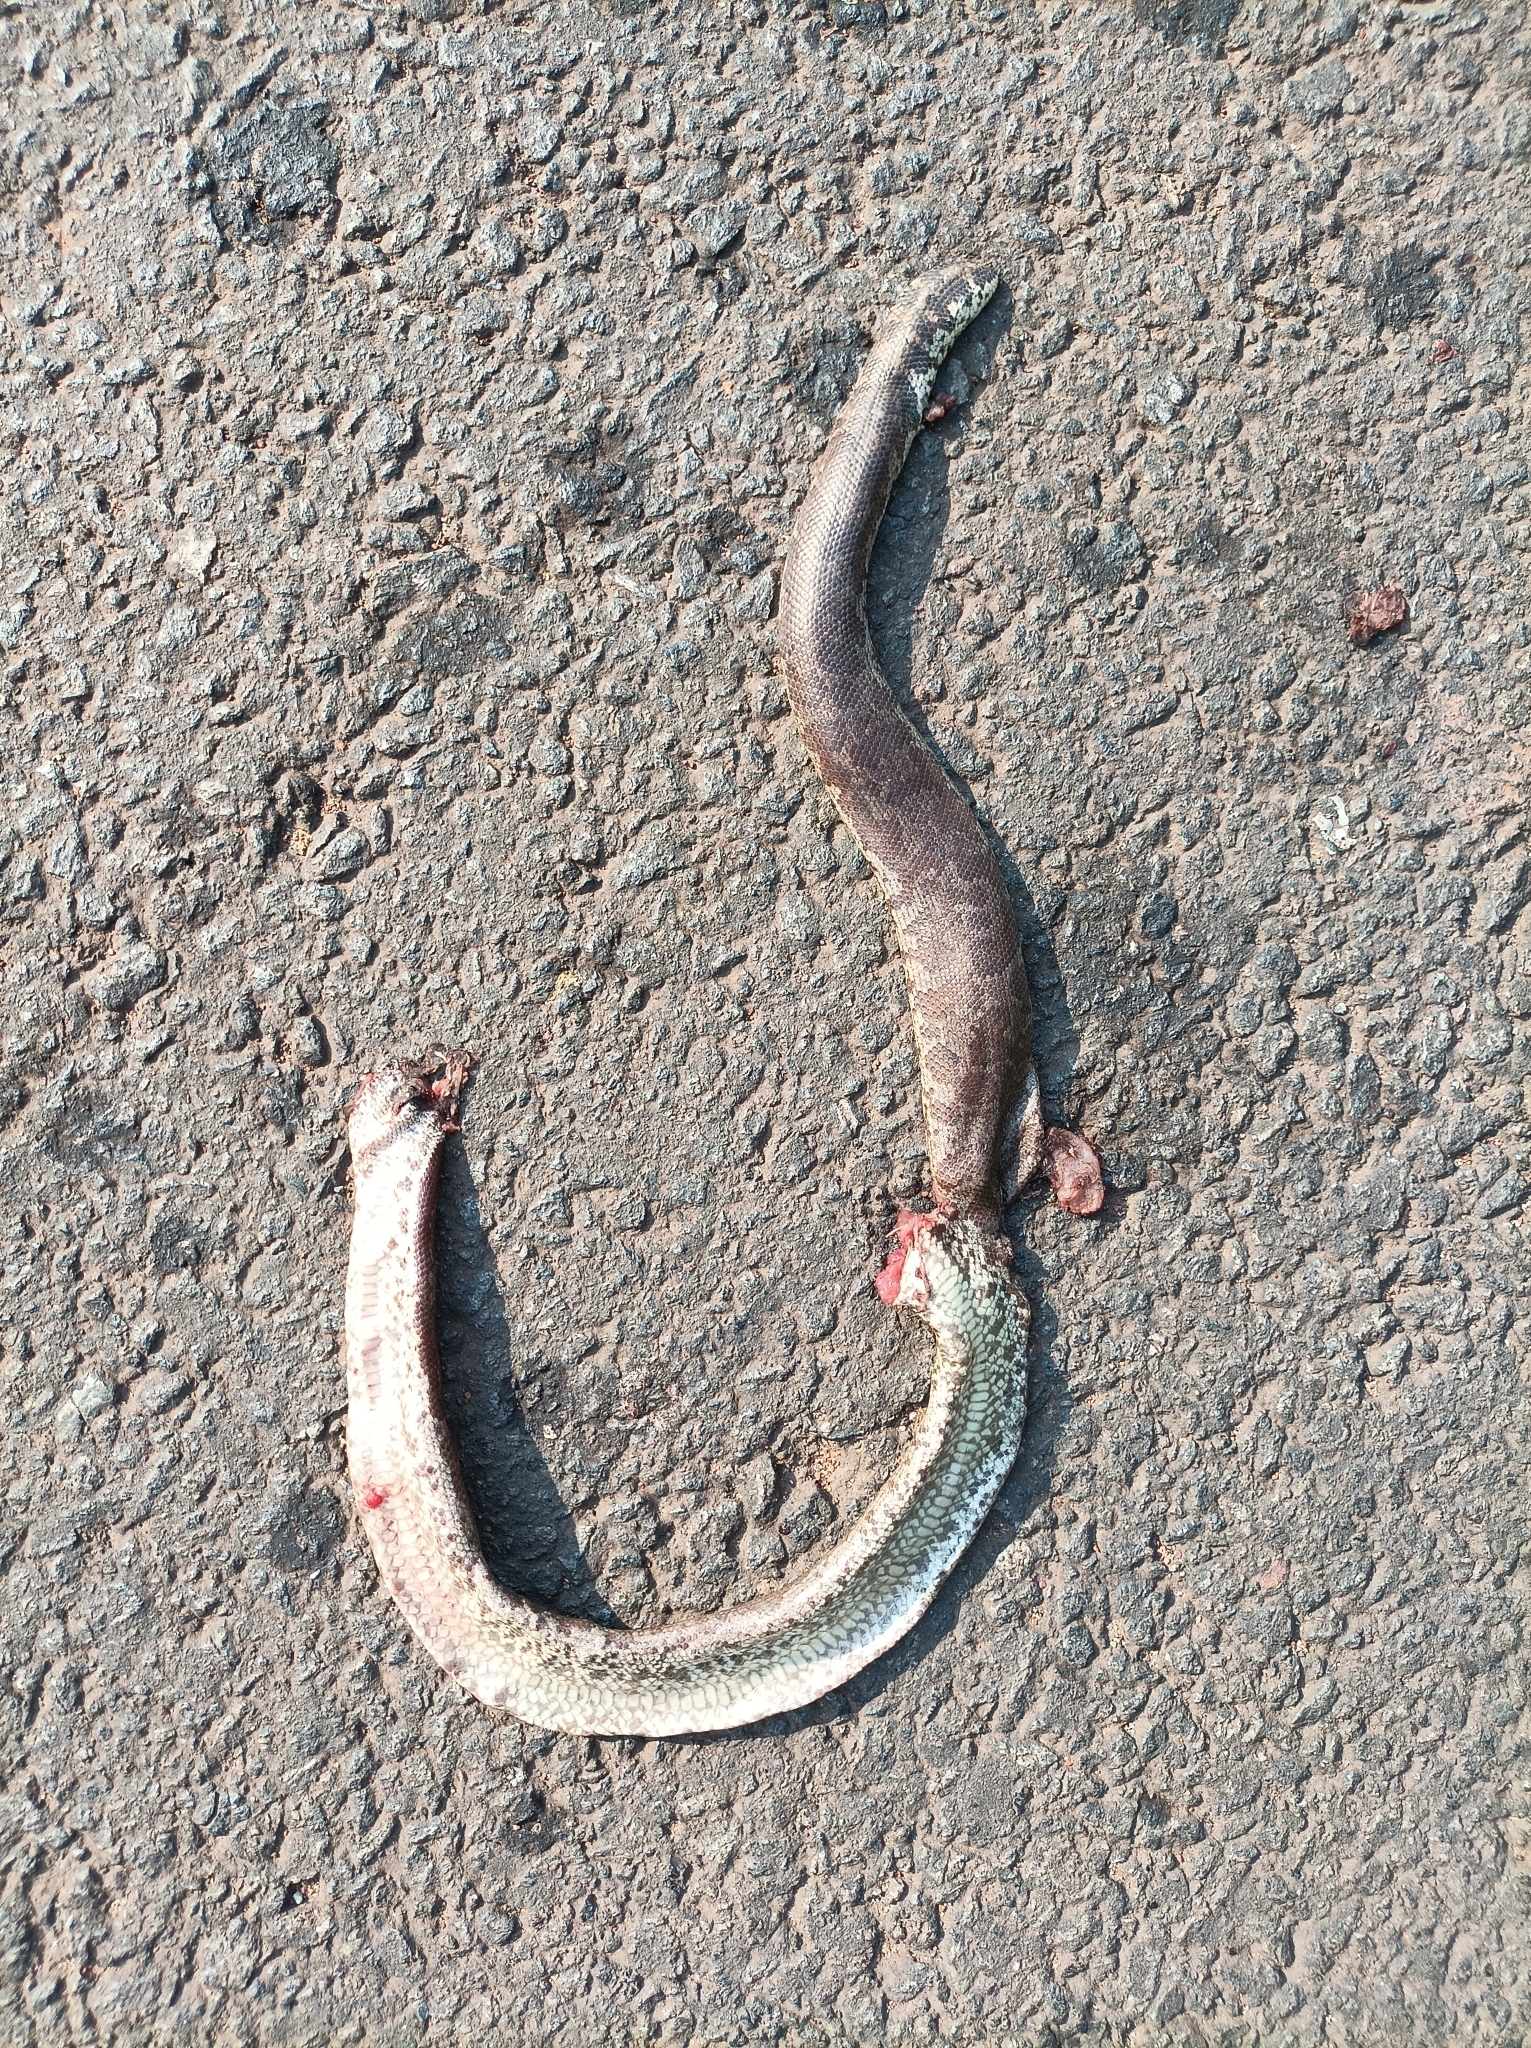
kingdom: Animalia
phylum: Chordata
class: Squamata
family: Boidae
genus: Eryx
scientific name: Eryx whitakeri
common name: Whitaker's boa
